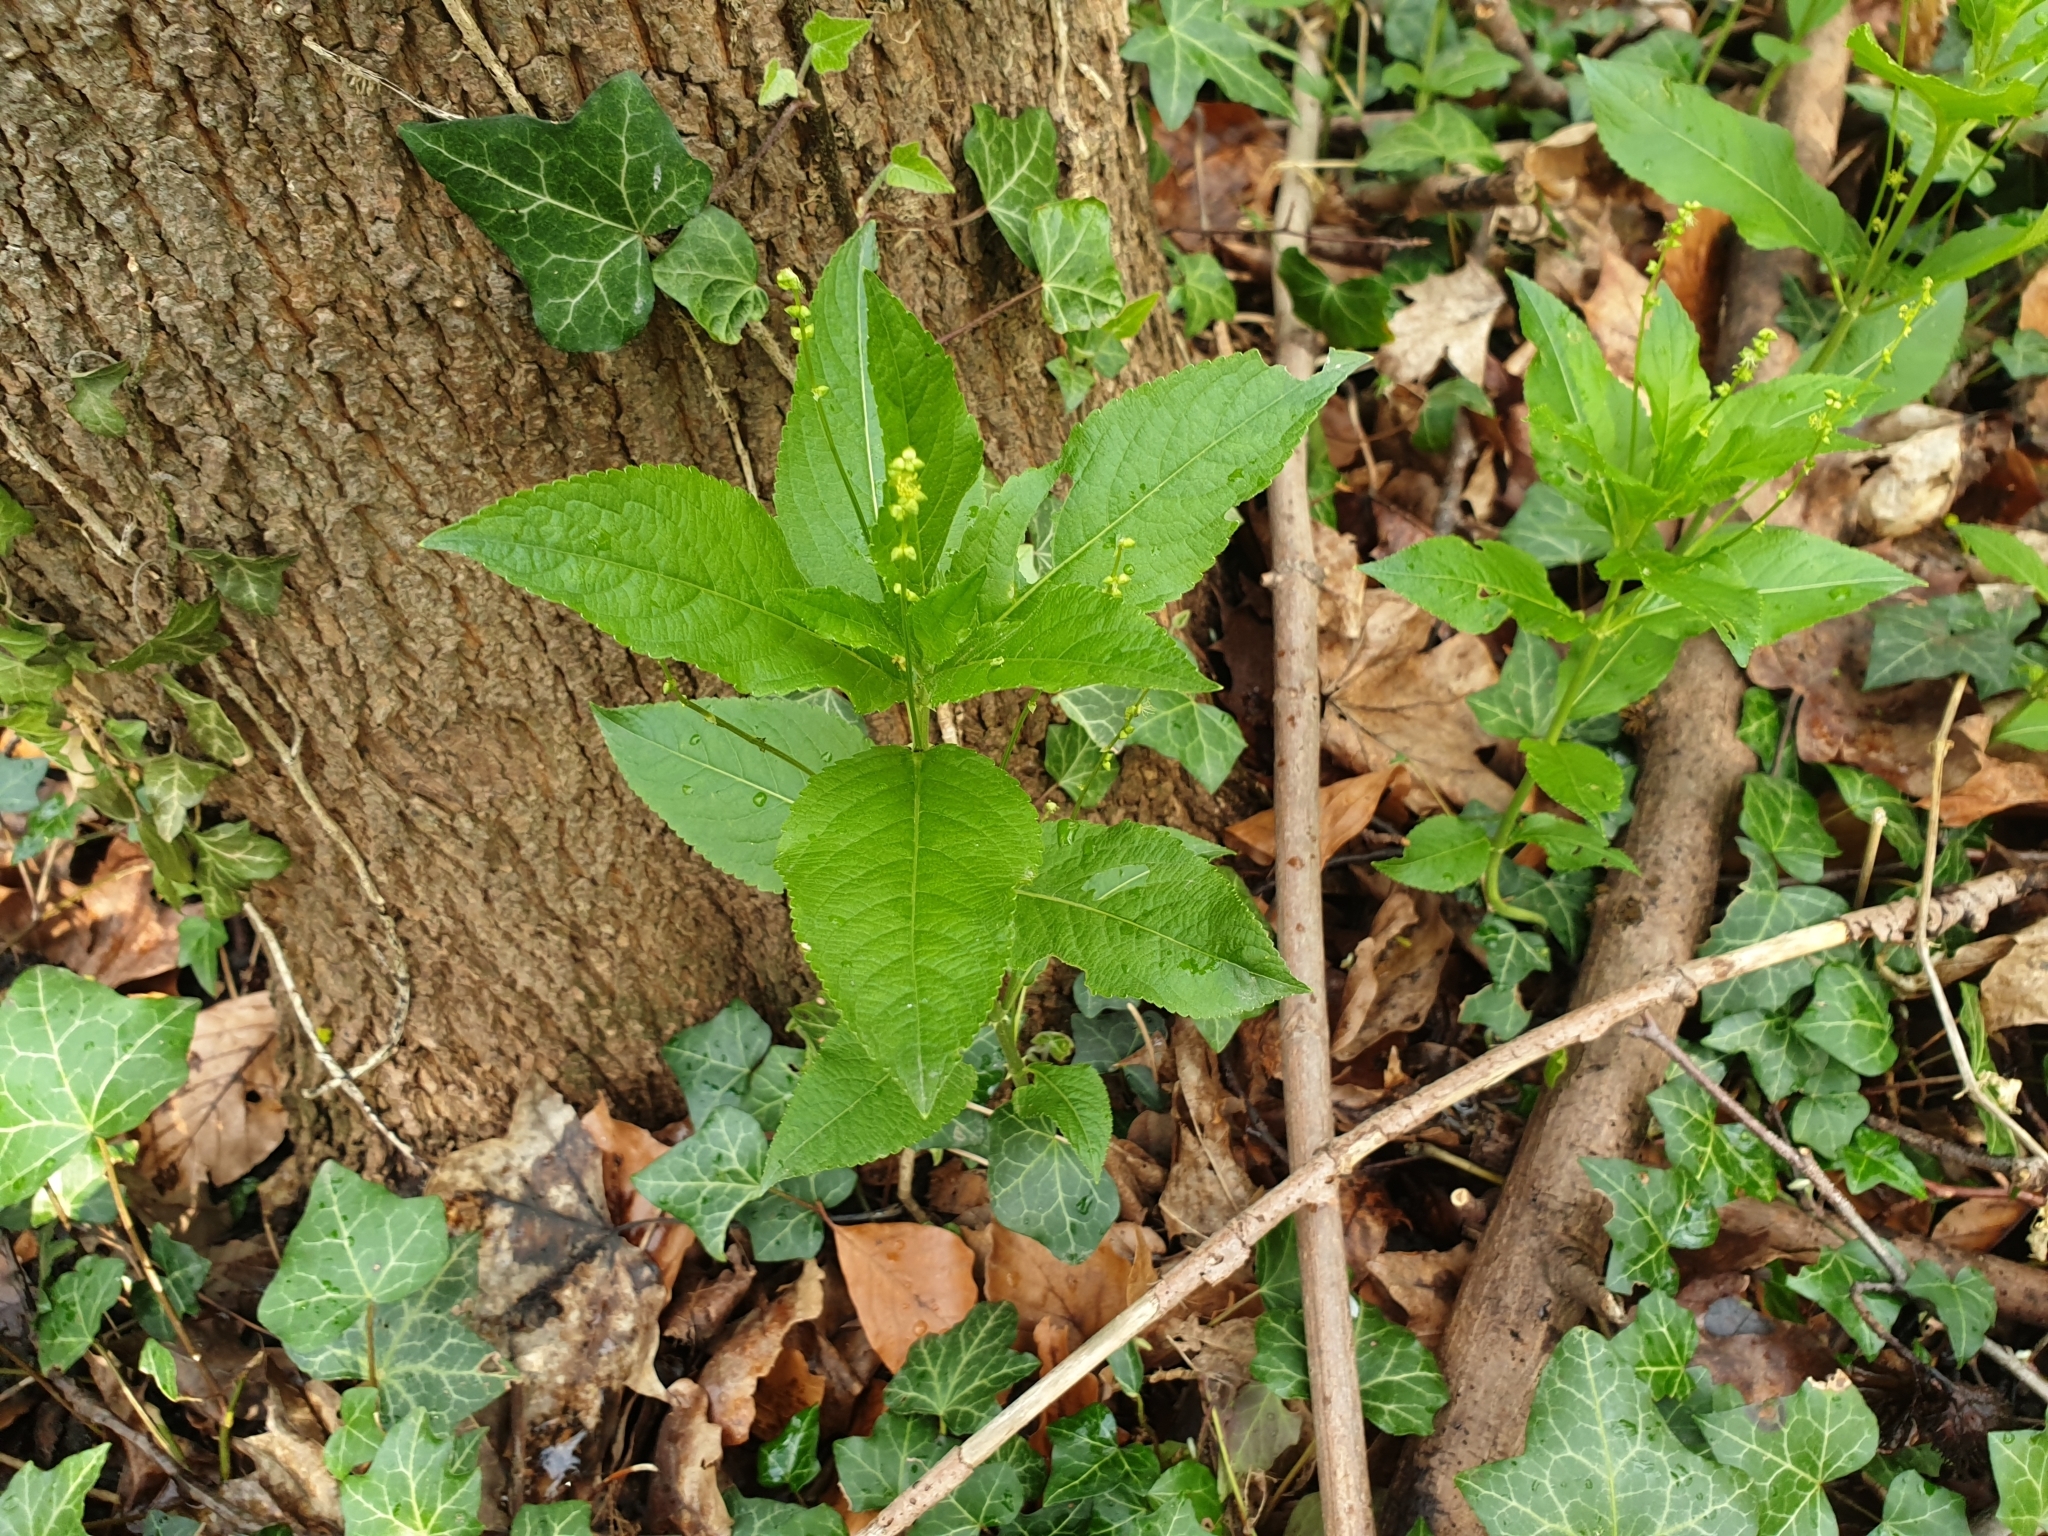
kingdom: Plantae
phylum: Tracheophyta
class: Magnoliopsida
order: Malpighiales
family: Euphorbiaceae
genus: Mercurialis
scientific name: Mercurialis perennis
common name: Dog mercury
